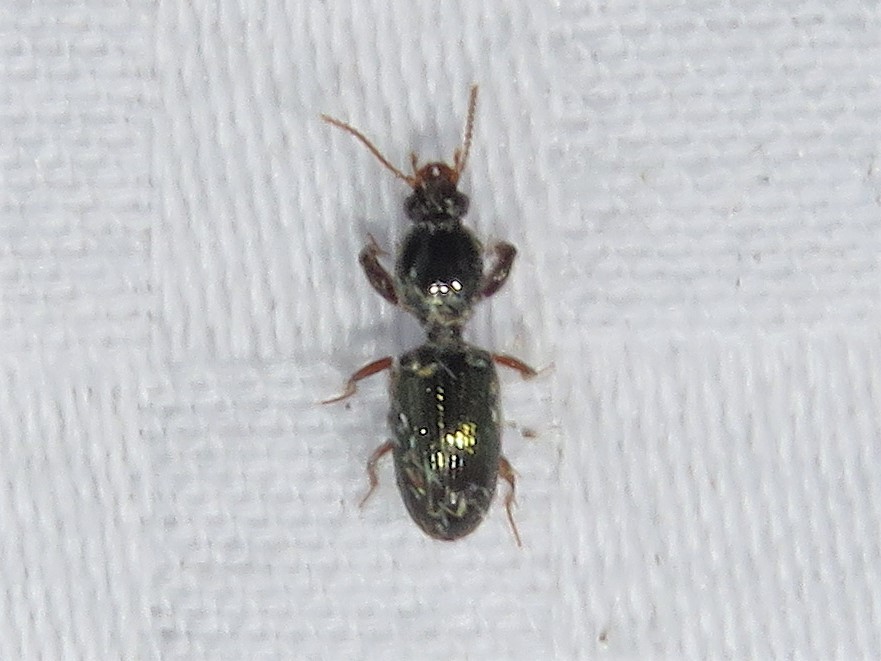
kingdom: Animalia
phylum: Arthropoda
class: Insecta
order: Coleoptera
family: Carabidae
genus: Dyschirius
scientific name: Dyschirius sphaericollis
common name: Round-necked discolored beetle
